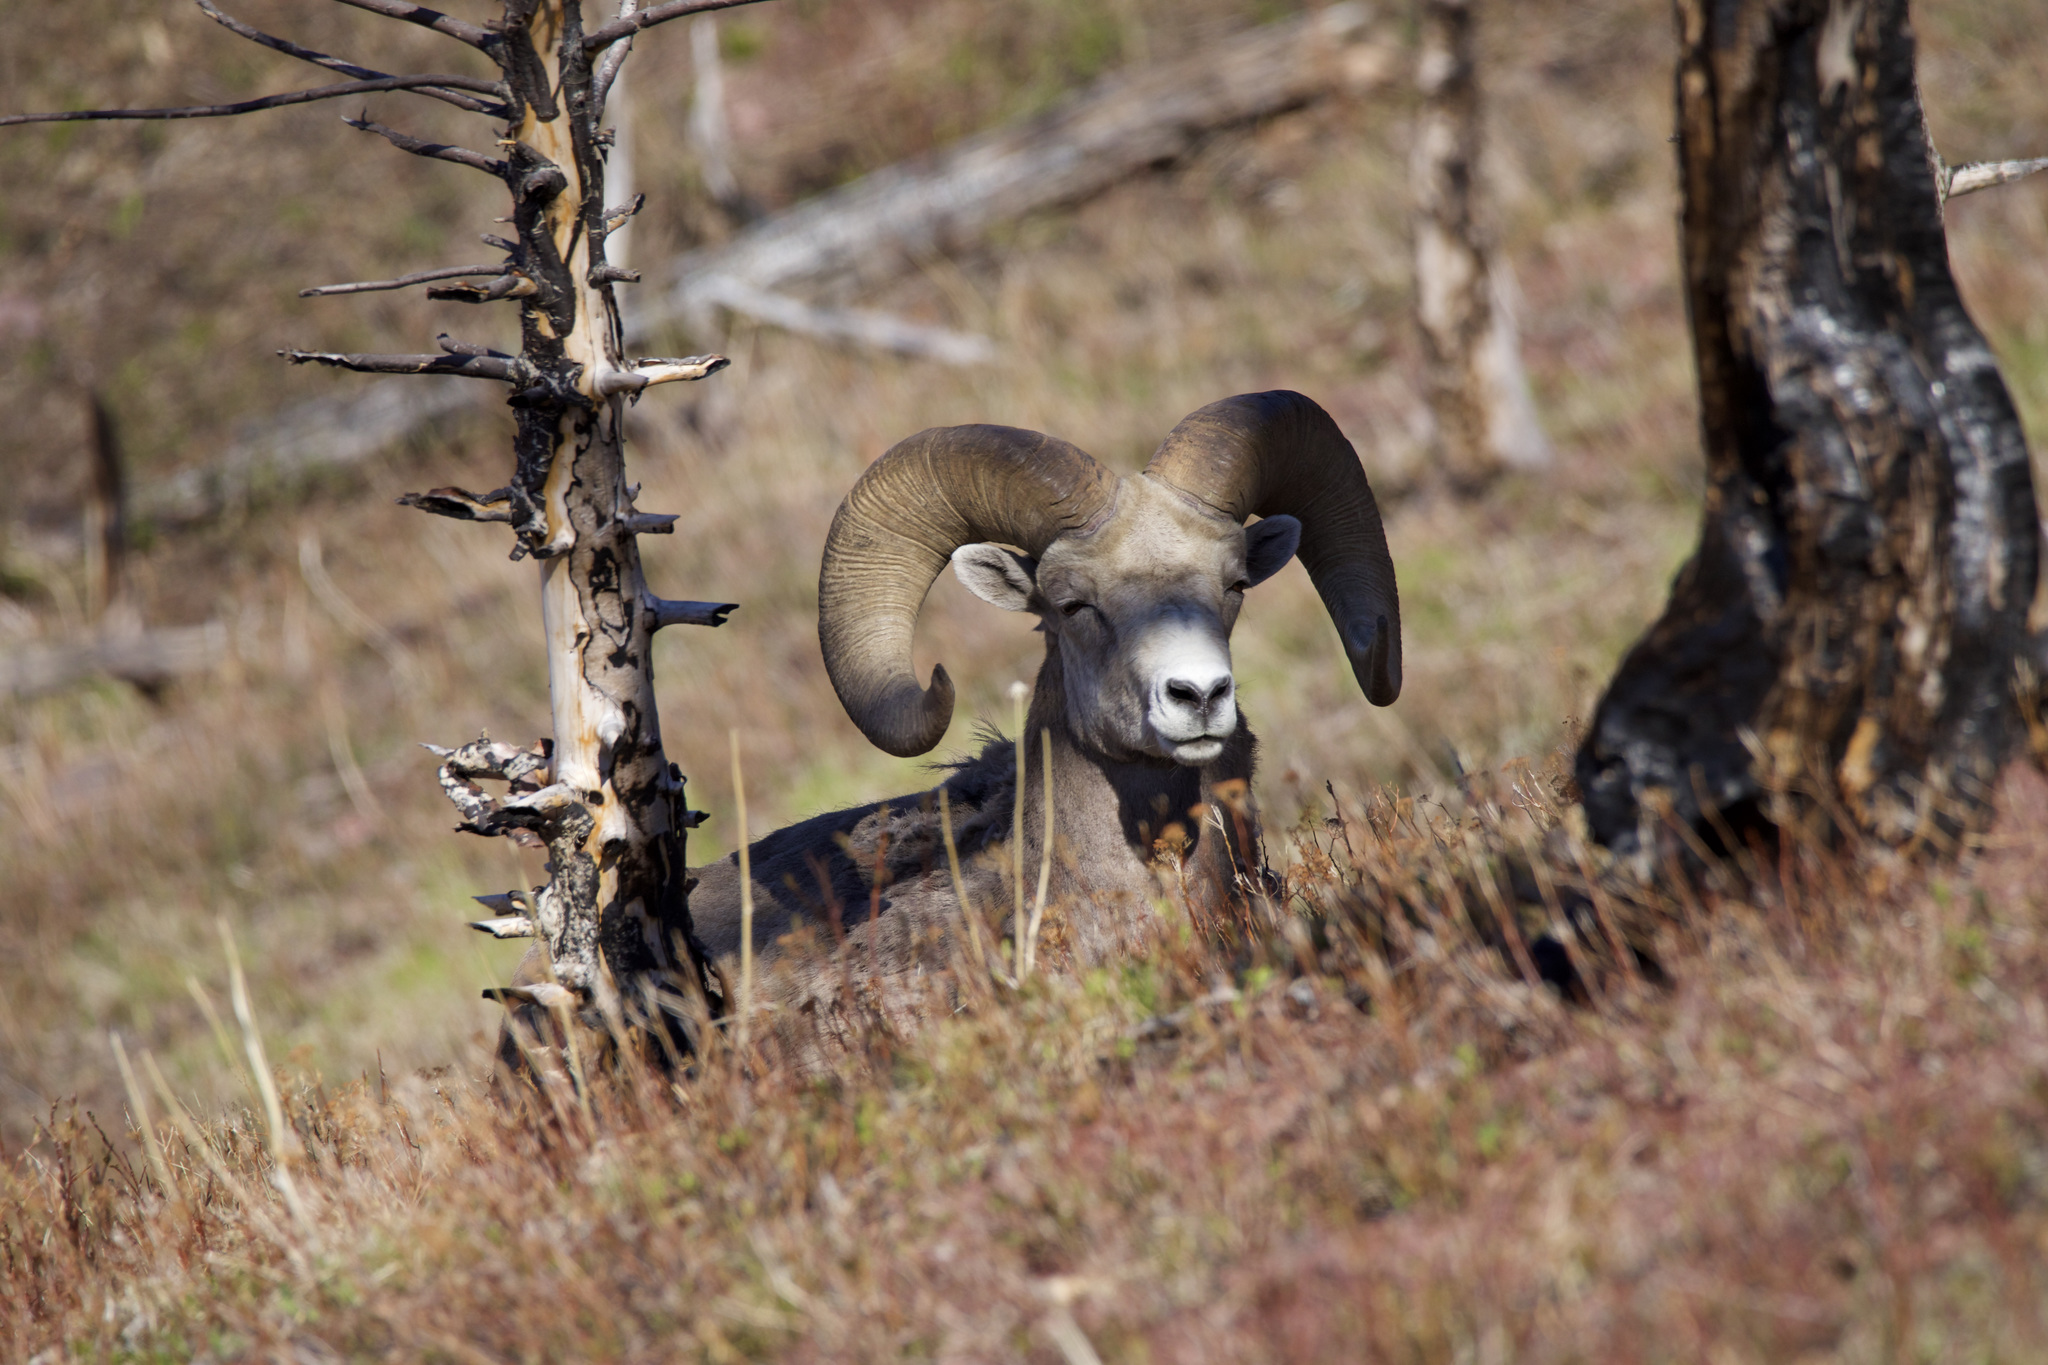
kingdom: Animalia
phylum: Chordata
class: Mammalia
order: Artiodactyla
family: Bovidae
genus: Ovis
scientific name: Ovis canadensis
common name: Bighorn sheep
